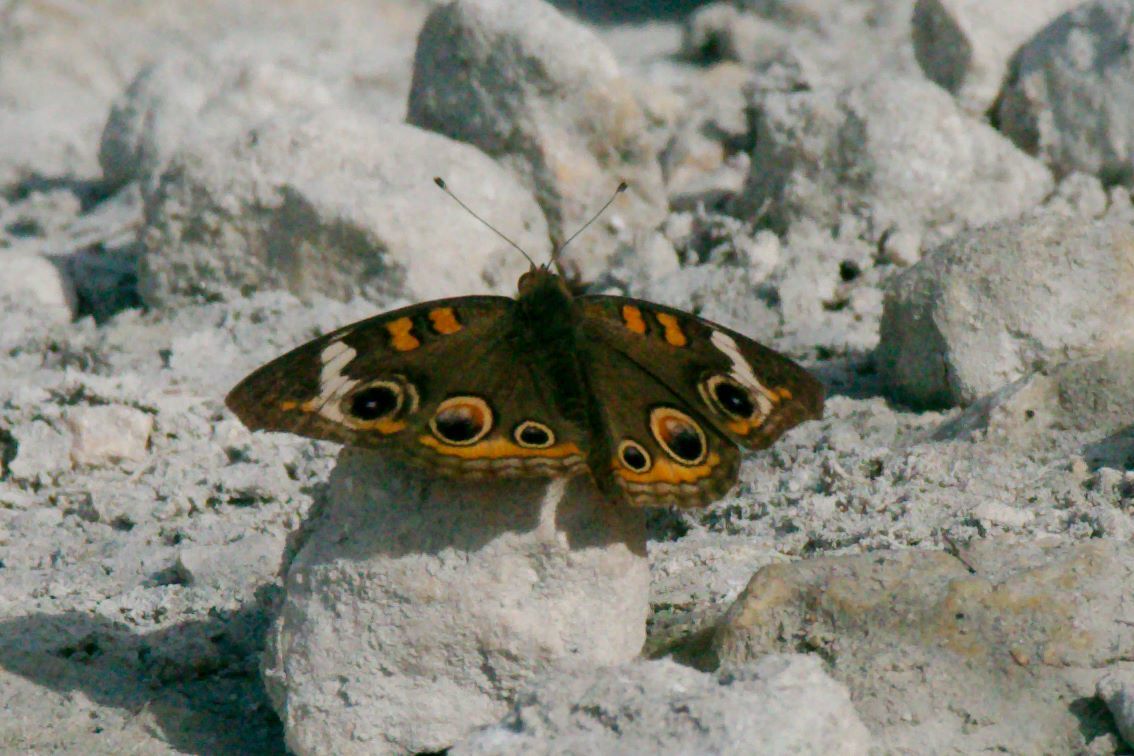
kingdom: Animalia
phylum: Arthropoda
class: Insecta
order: Lepidoptera
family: Nymphalidae
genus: Junonia
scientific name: Junonia coenia
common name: Common buckeye
